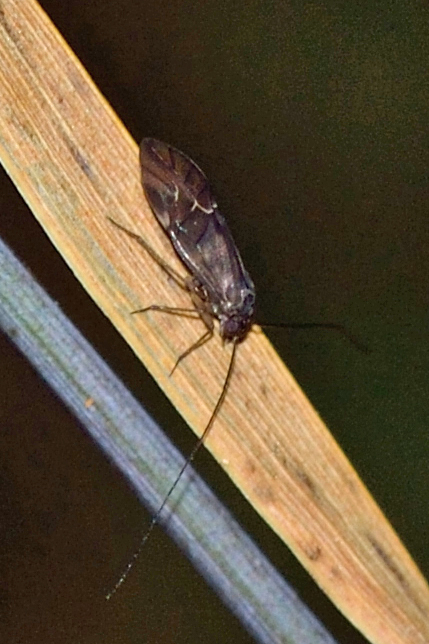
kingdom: Animalia
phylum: Arthropoda
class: Insecta
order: Psocodea
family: Psocidae
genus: Metylophorus
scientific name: Metylophorus nebulosus
